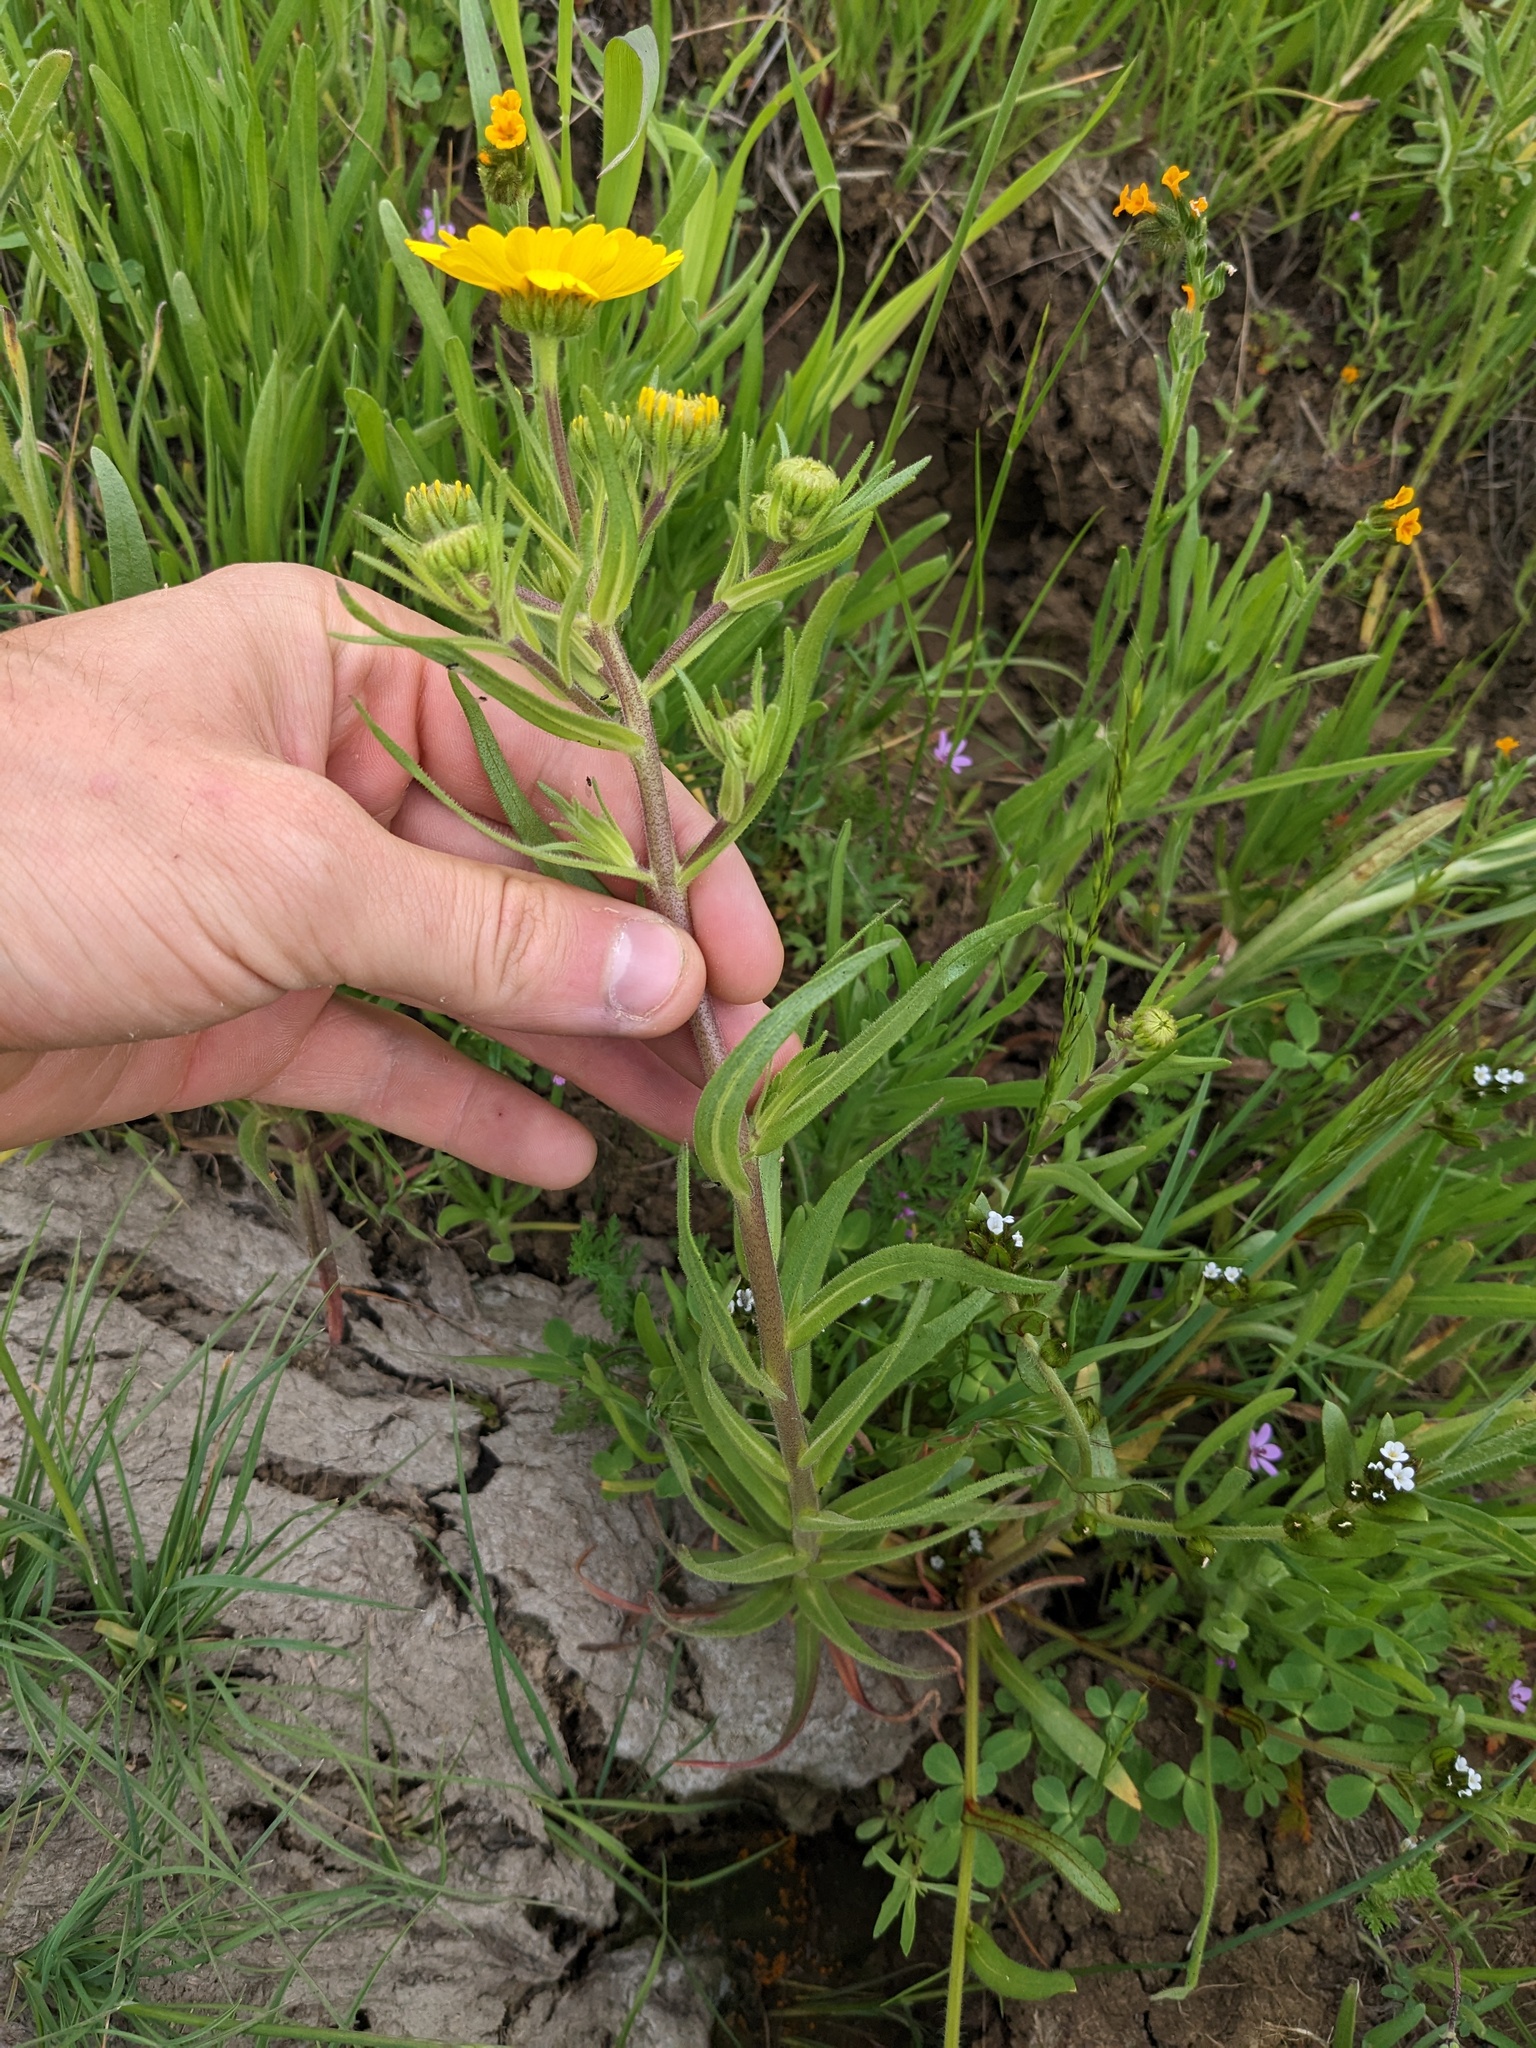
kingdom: Plantae
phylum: Tracheophyta
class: Magnoliopsida
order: Asterales
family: Asteraceae
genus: Madia
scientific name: Madia radiata
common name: Showy madia
